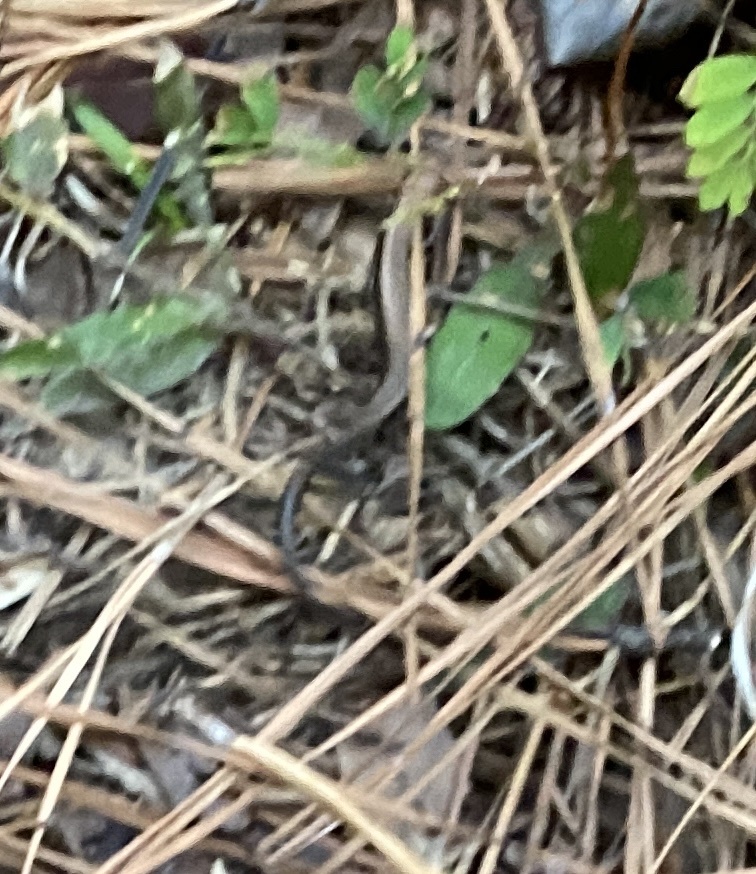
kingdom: Animalia
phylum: Chordata
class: Squamata
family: Scincidae
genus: Scincella
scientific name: Scincella lateralis
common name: Ground skink
